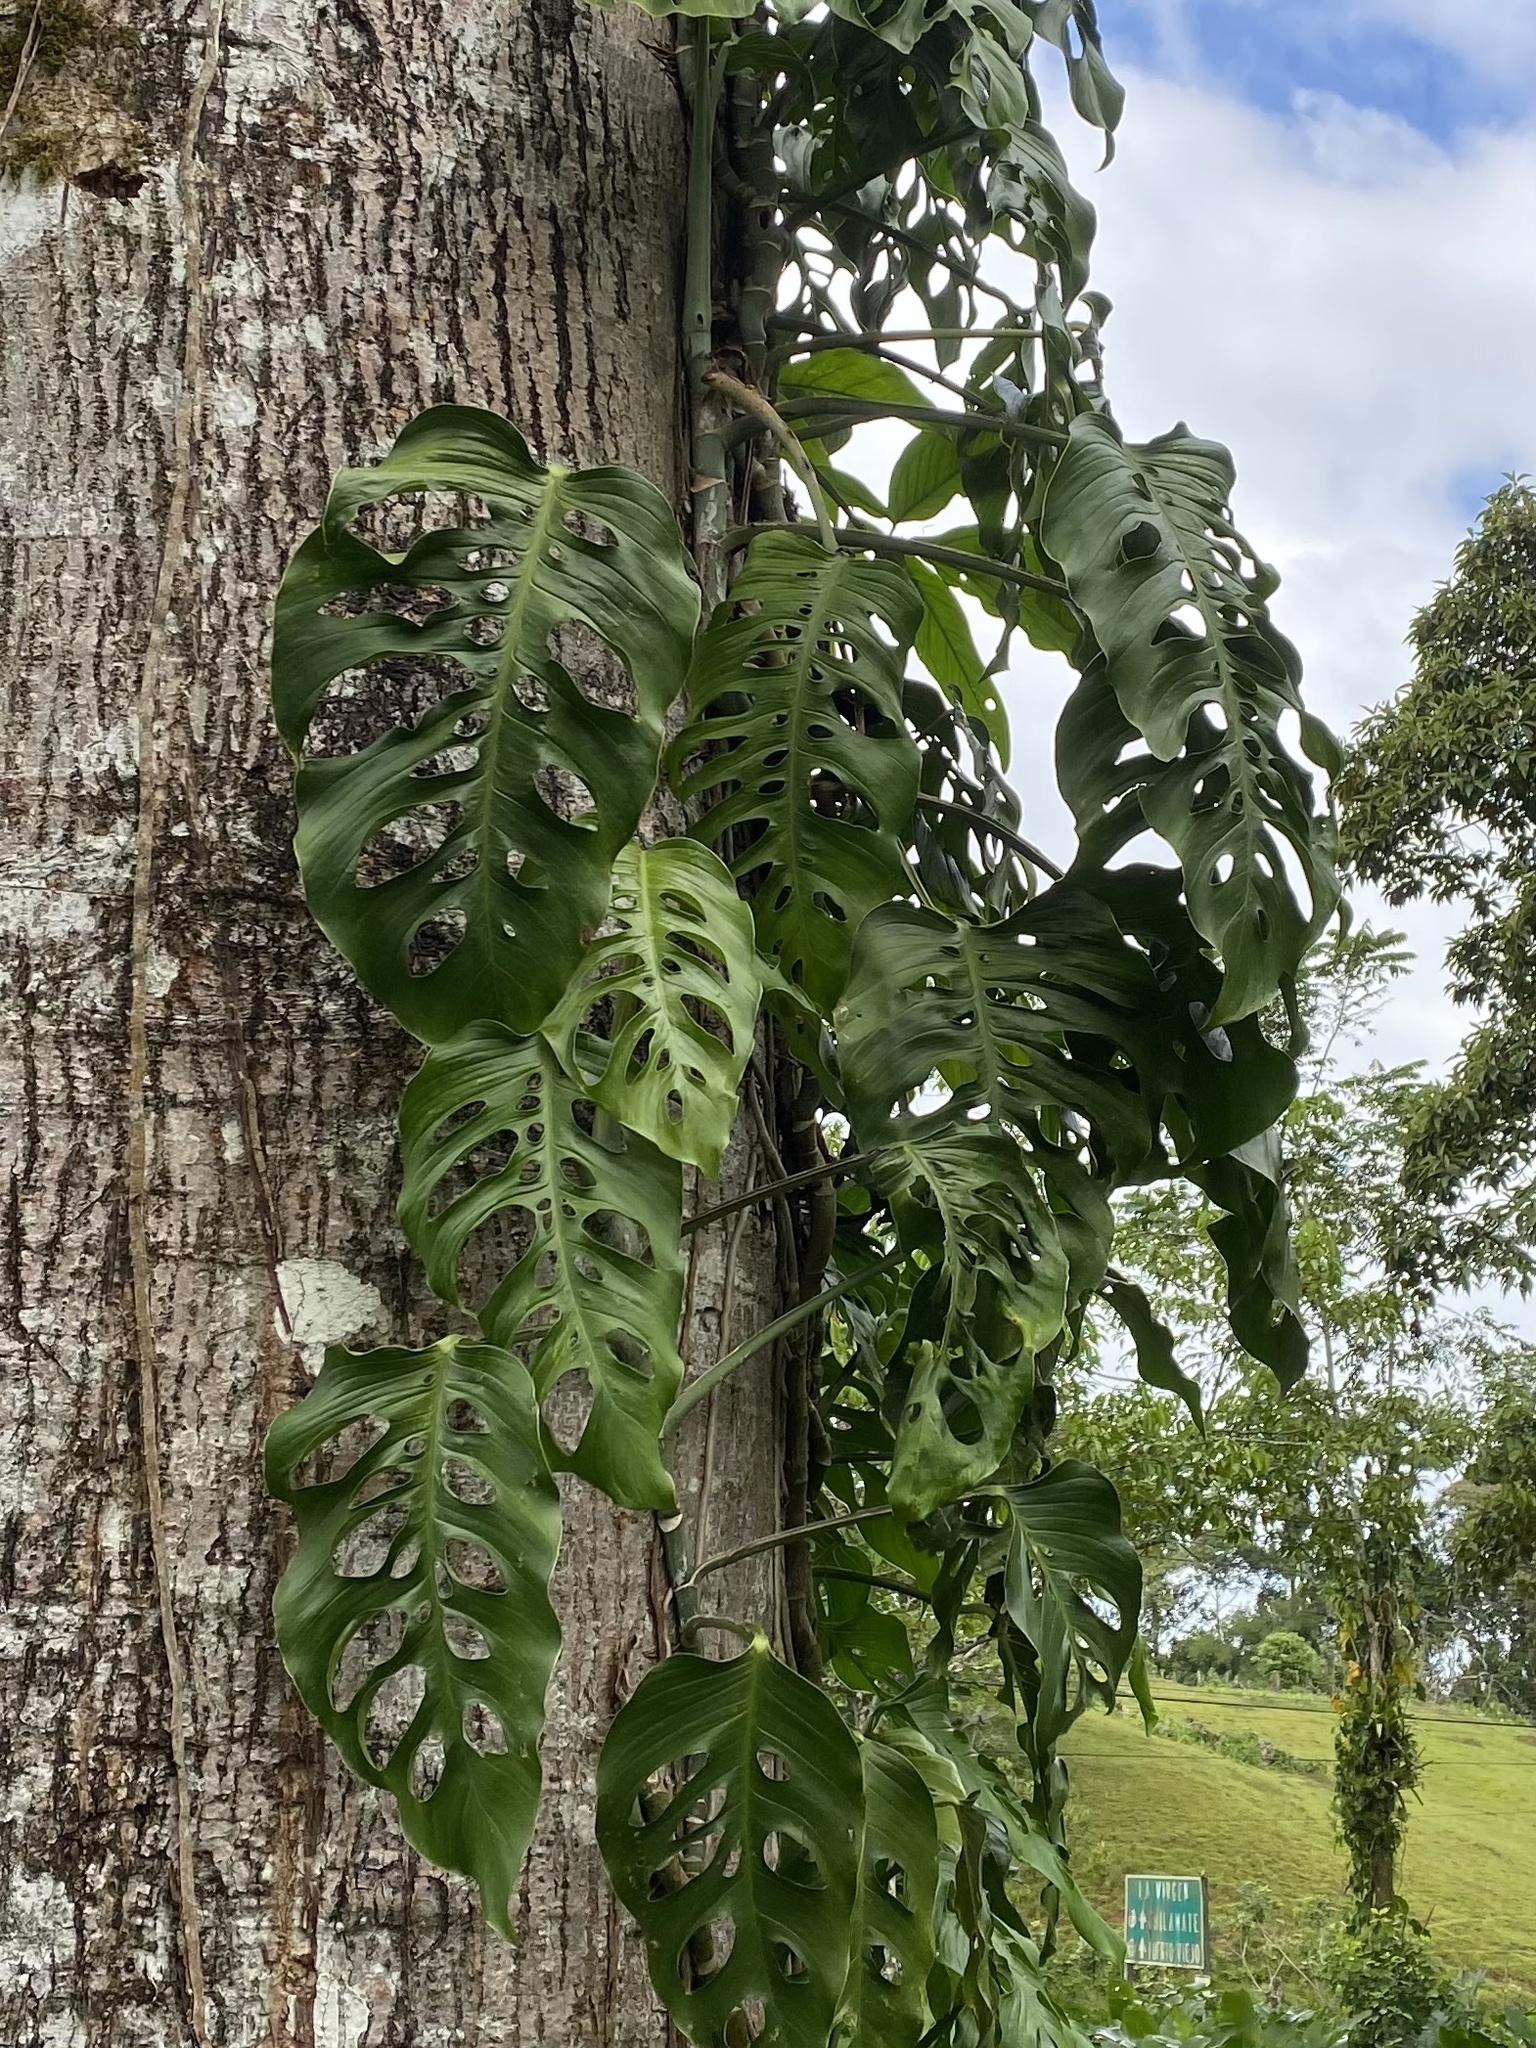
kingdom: Plantae
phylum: Tracheophyta
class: Liliopsida
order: Alismatales
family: Araceae
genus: Monstera
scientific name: Monstera adansonii
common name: Tarovine
